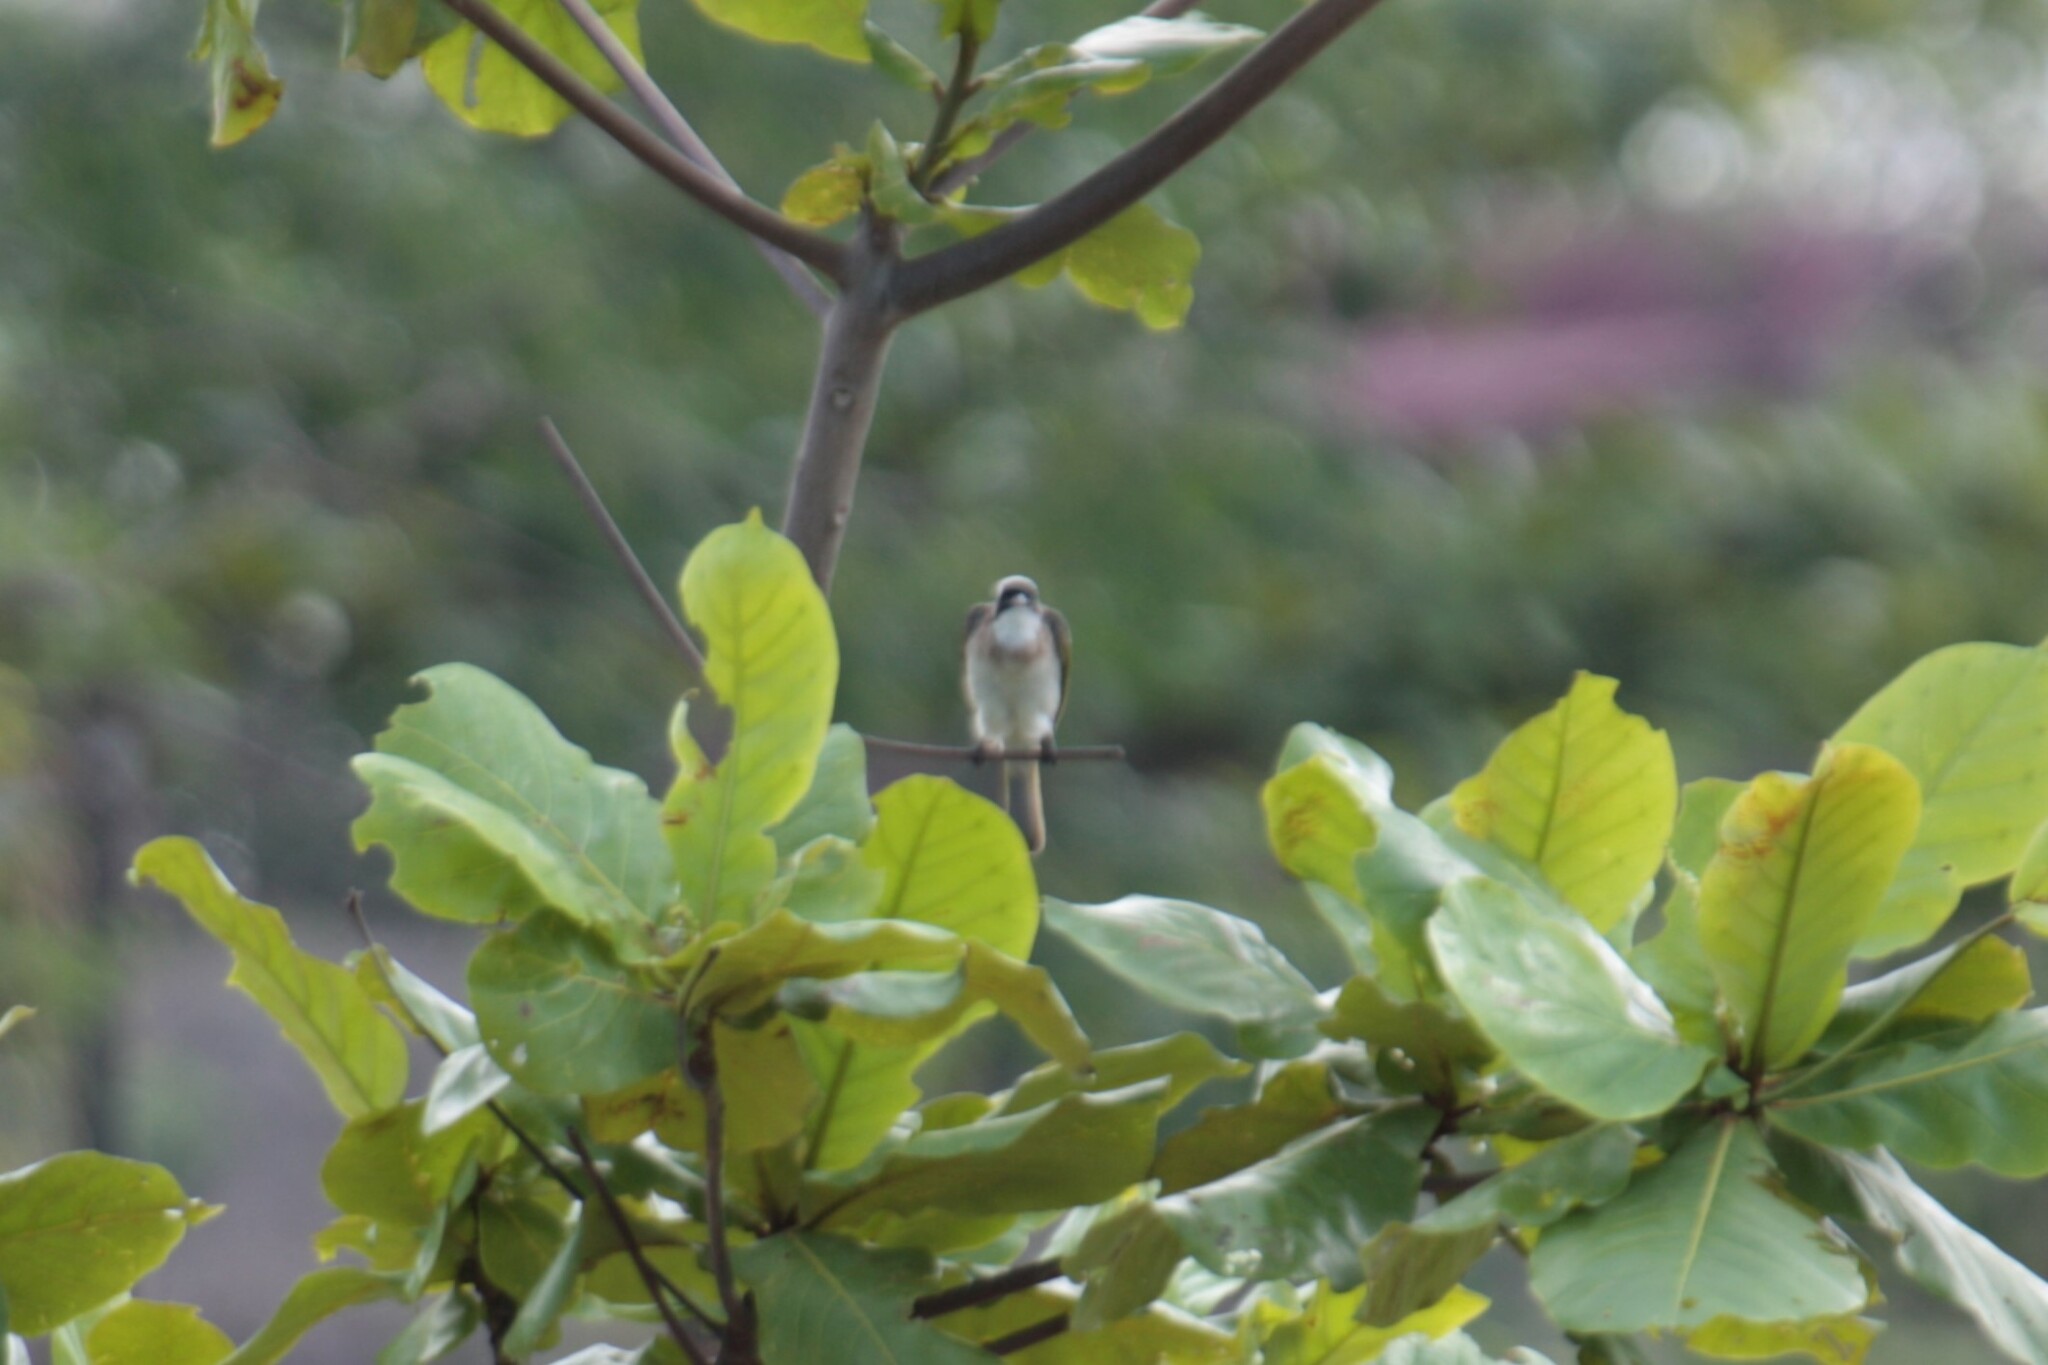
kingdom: Animalia
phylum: Chordata
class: Aves
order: Passeriformes
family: Pycnonotidae
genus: Pycnonotus
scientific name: Pycnonotus sinensis
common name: Light-vented bulbul
